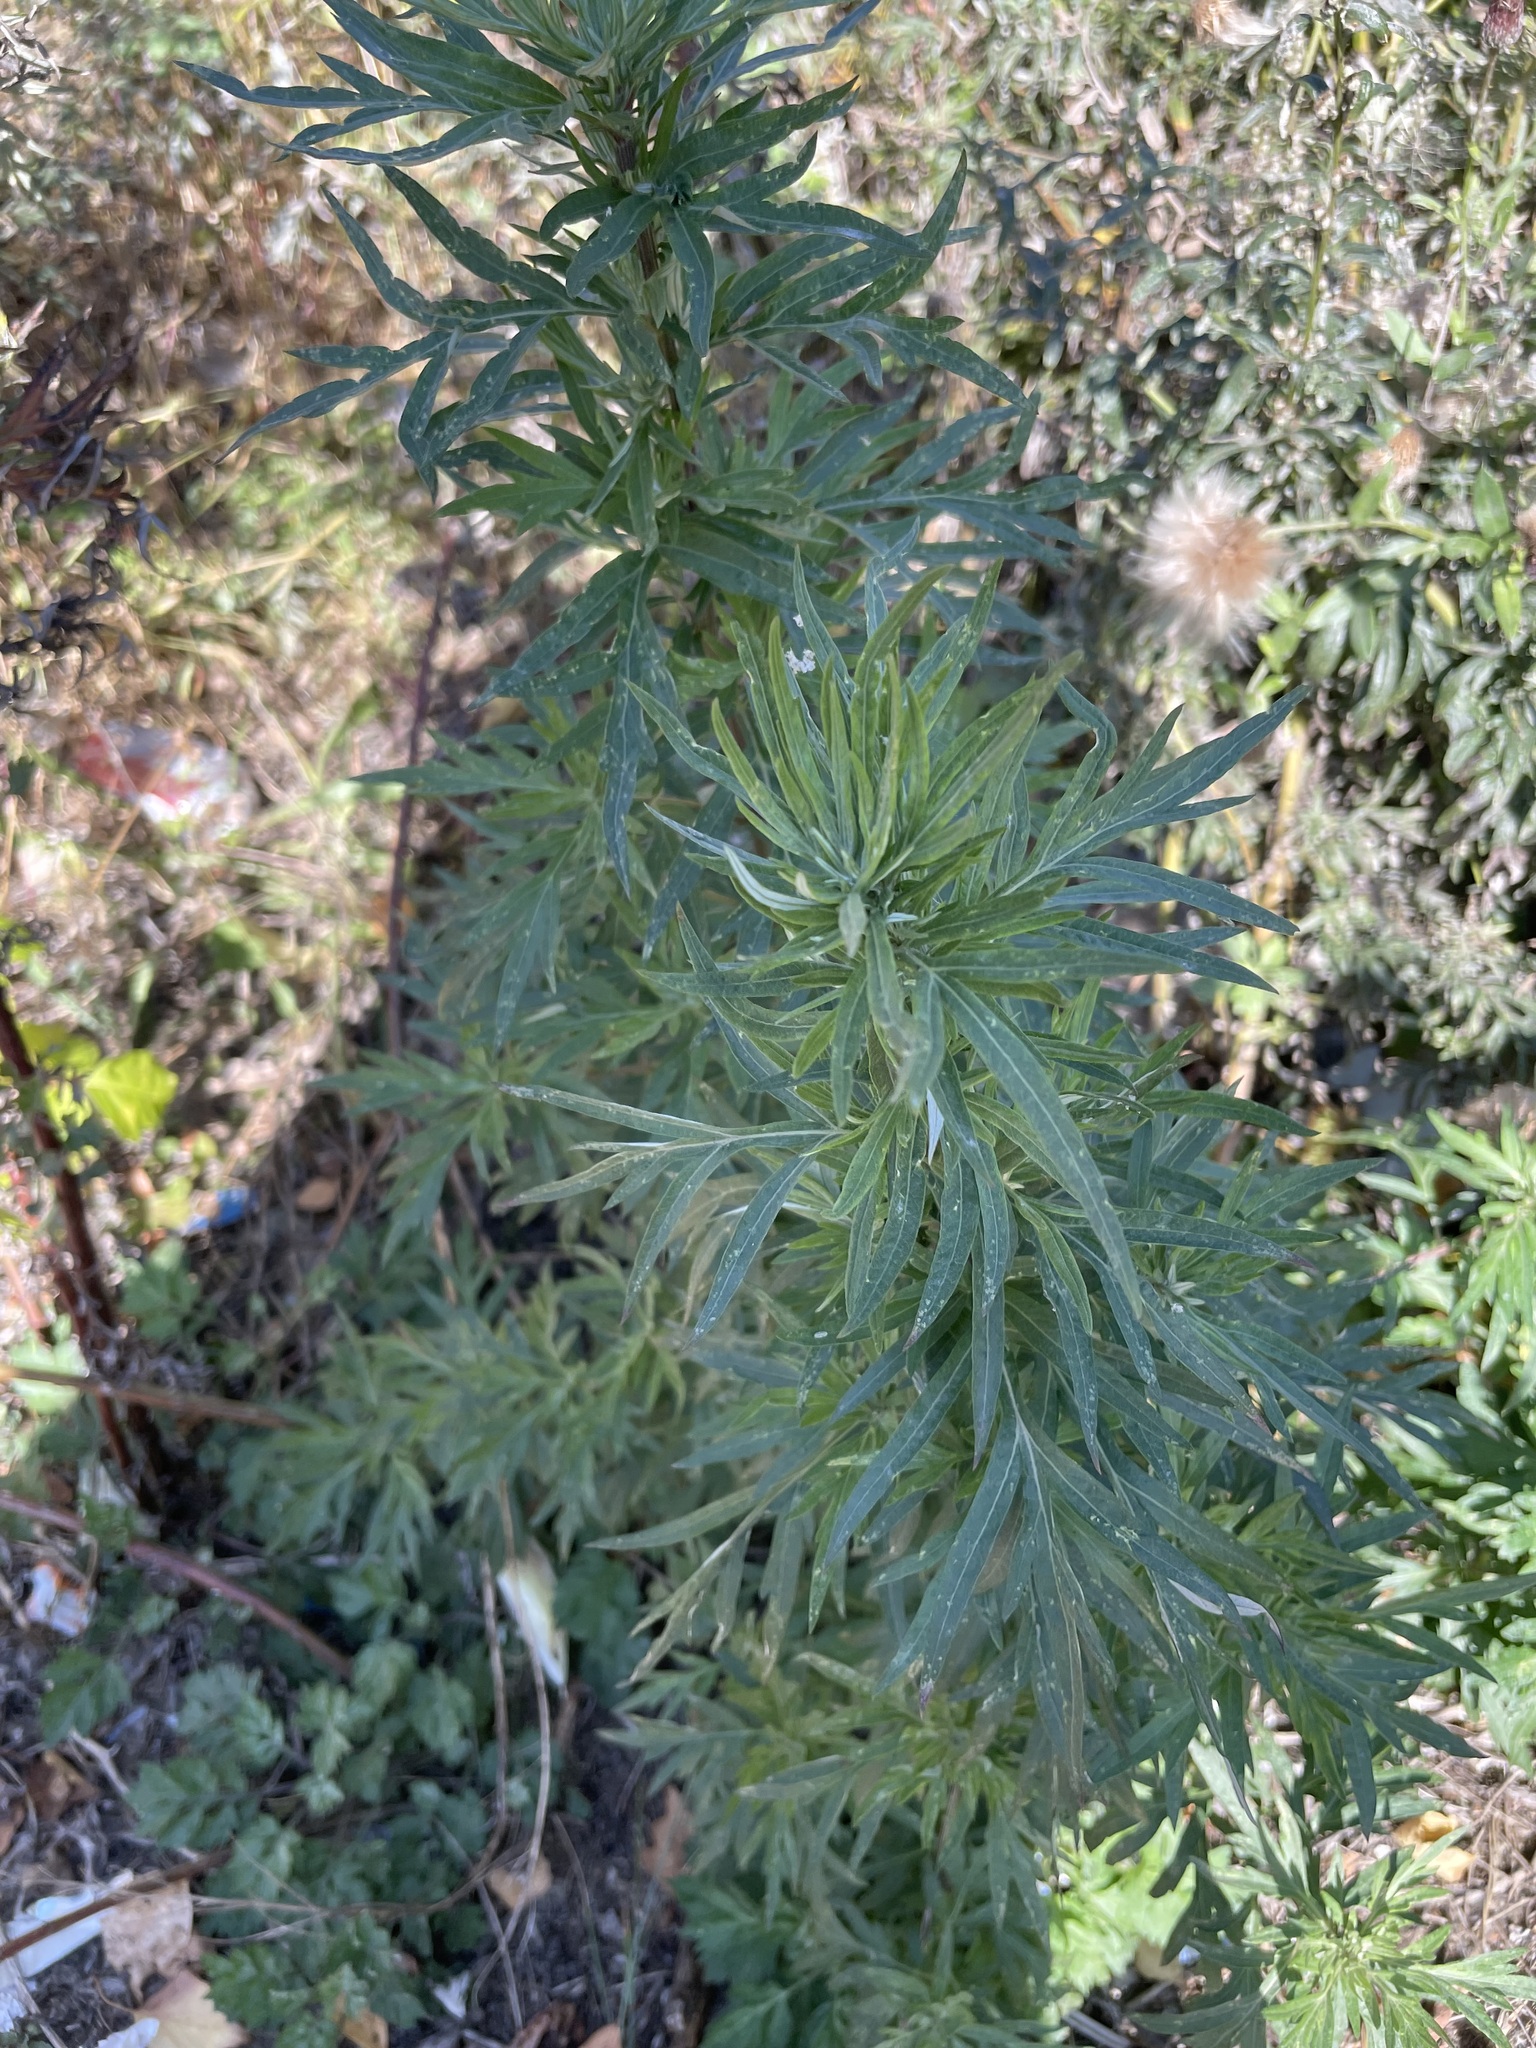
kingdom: Plantae
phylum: Tracheophyta
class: Magnoliopsida
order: Asterales
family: Asteraceae
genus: Artemisia
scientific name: Artemisia vulgaris
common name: Mugwort
